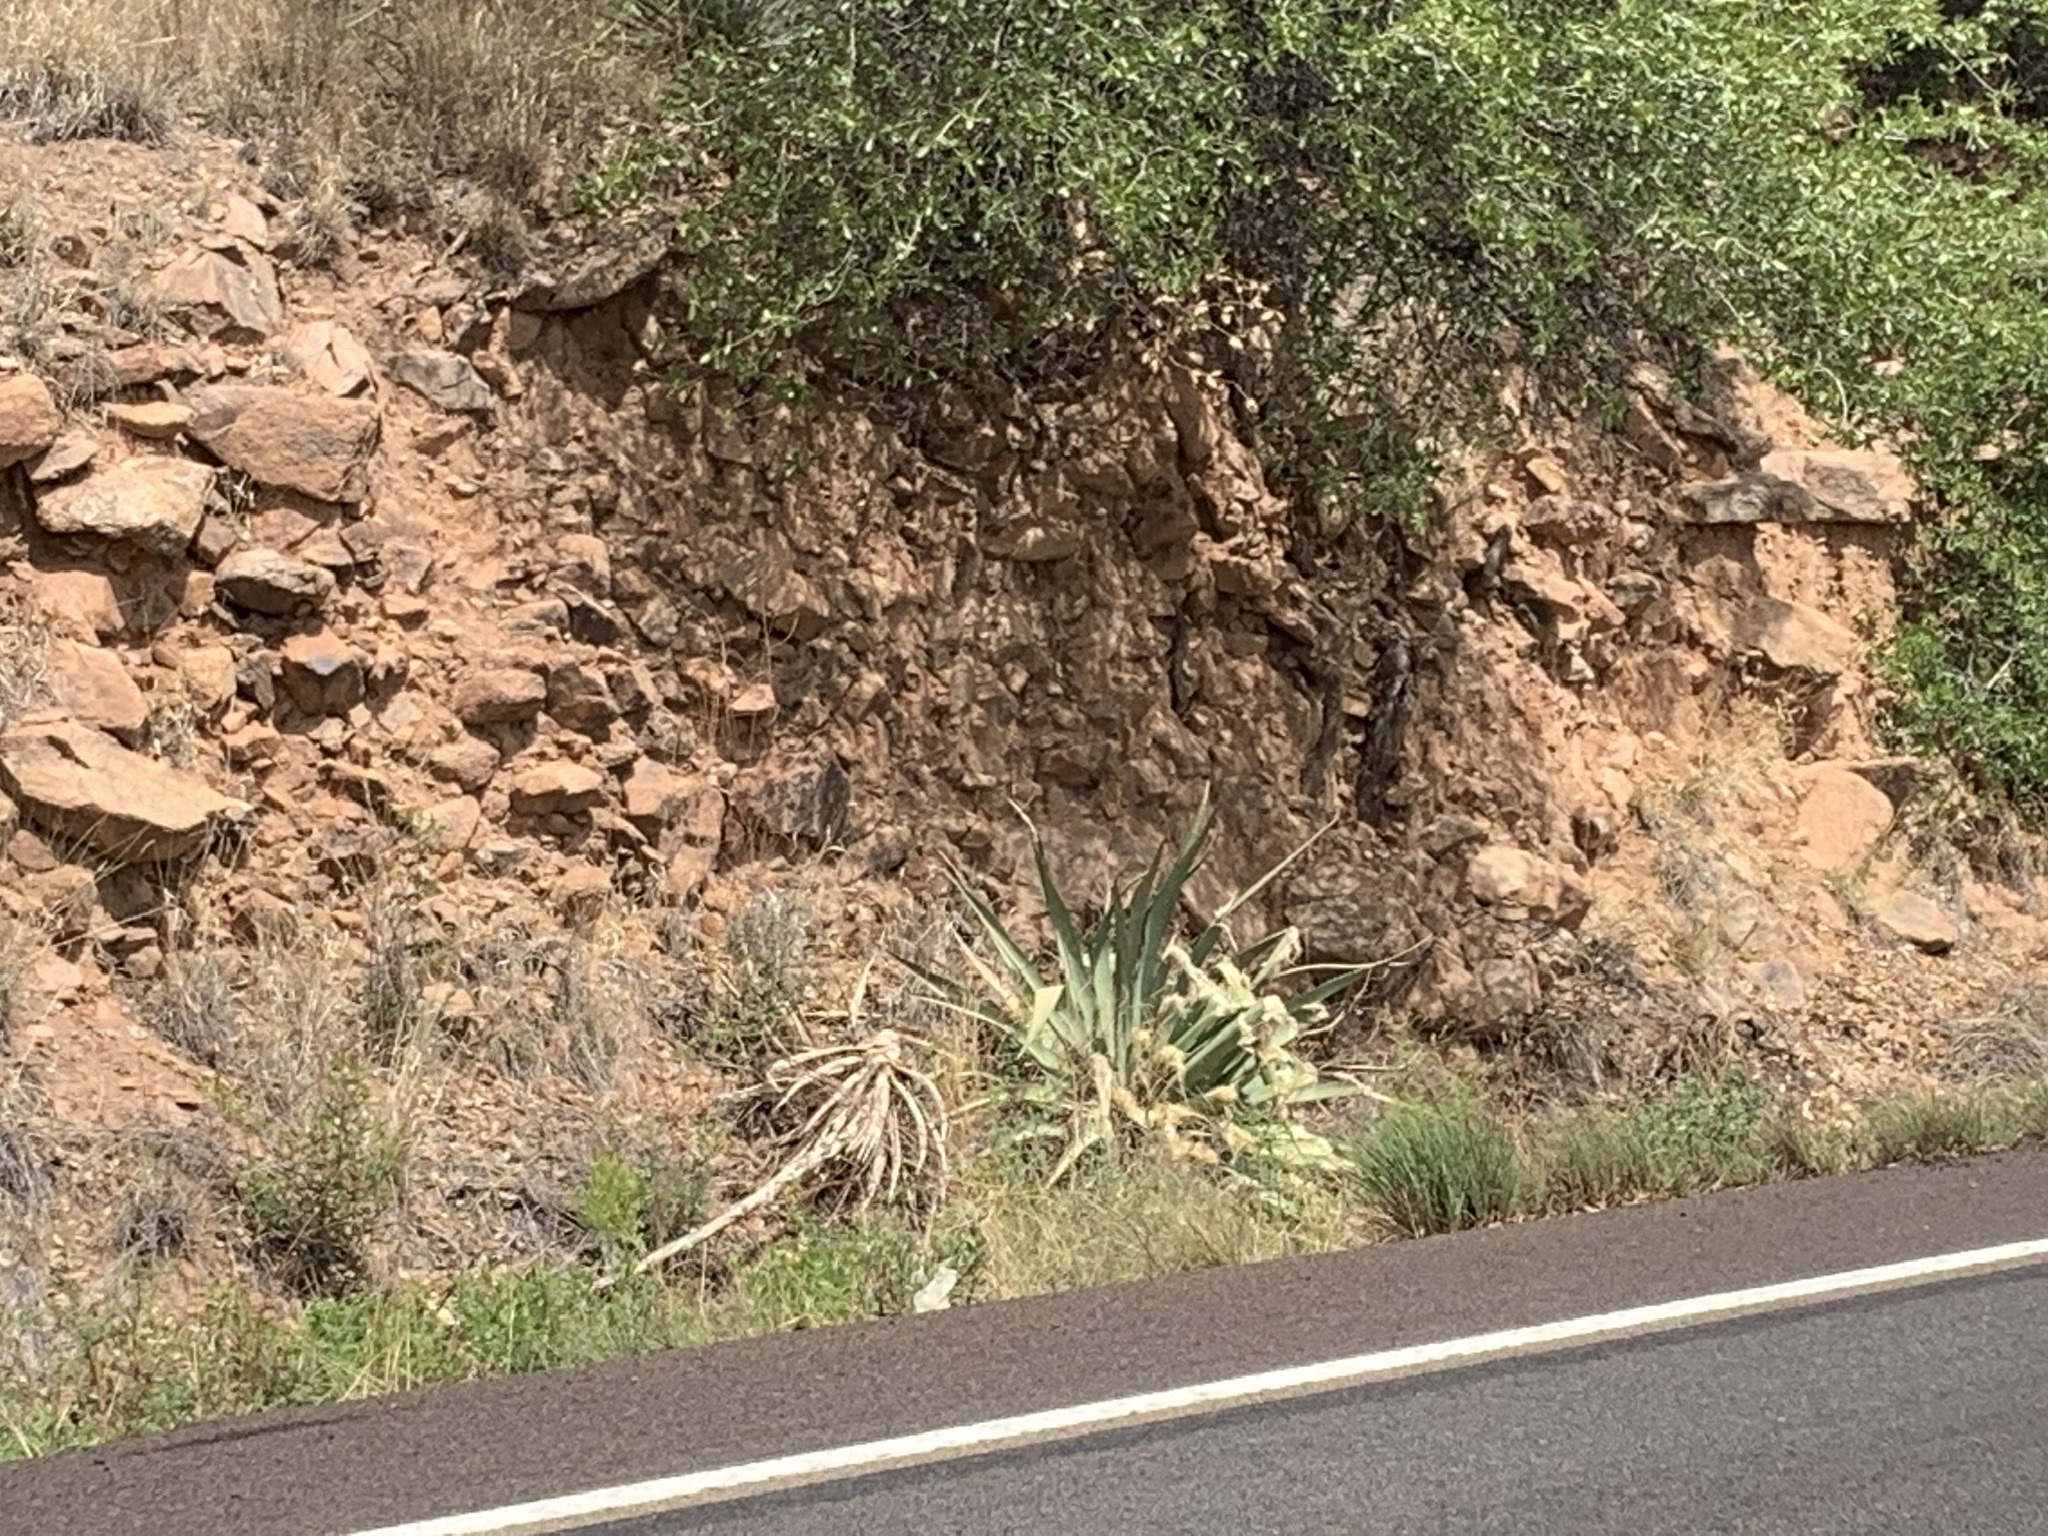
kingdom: Plantae
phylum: Tracheophyta
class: Liliopsida
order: Asparagales
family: Asparagaceae
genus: Agave
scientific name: Agave palmeri
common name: Palmer agave
